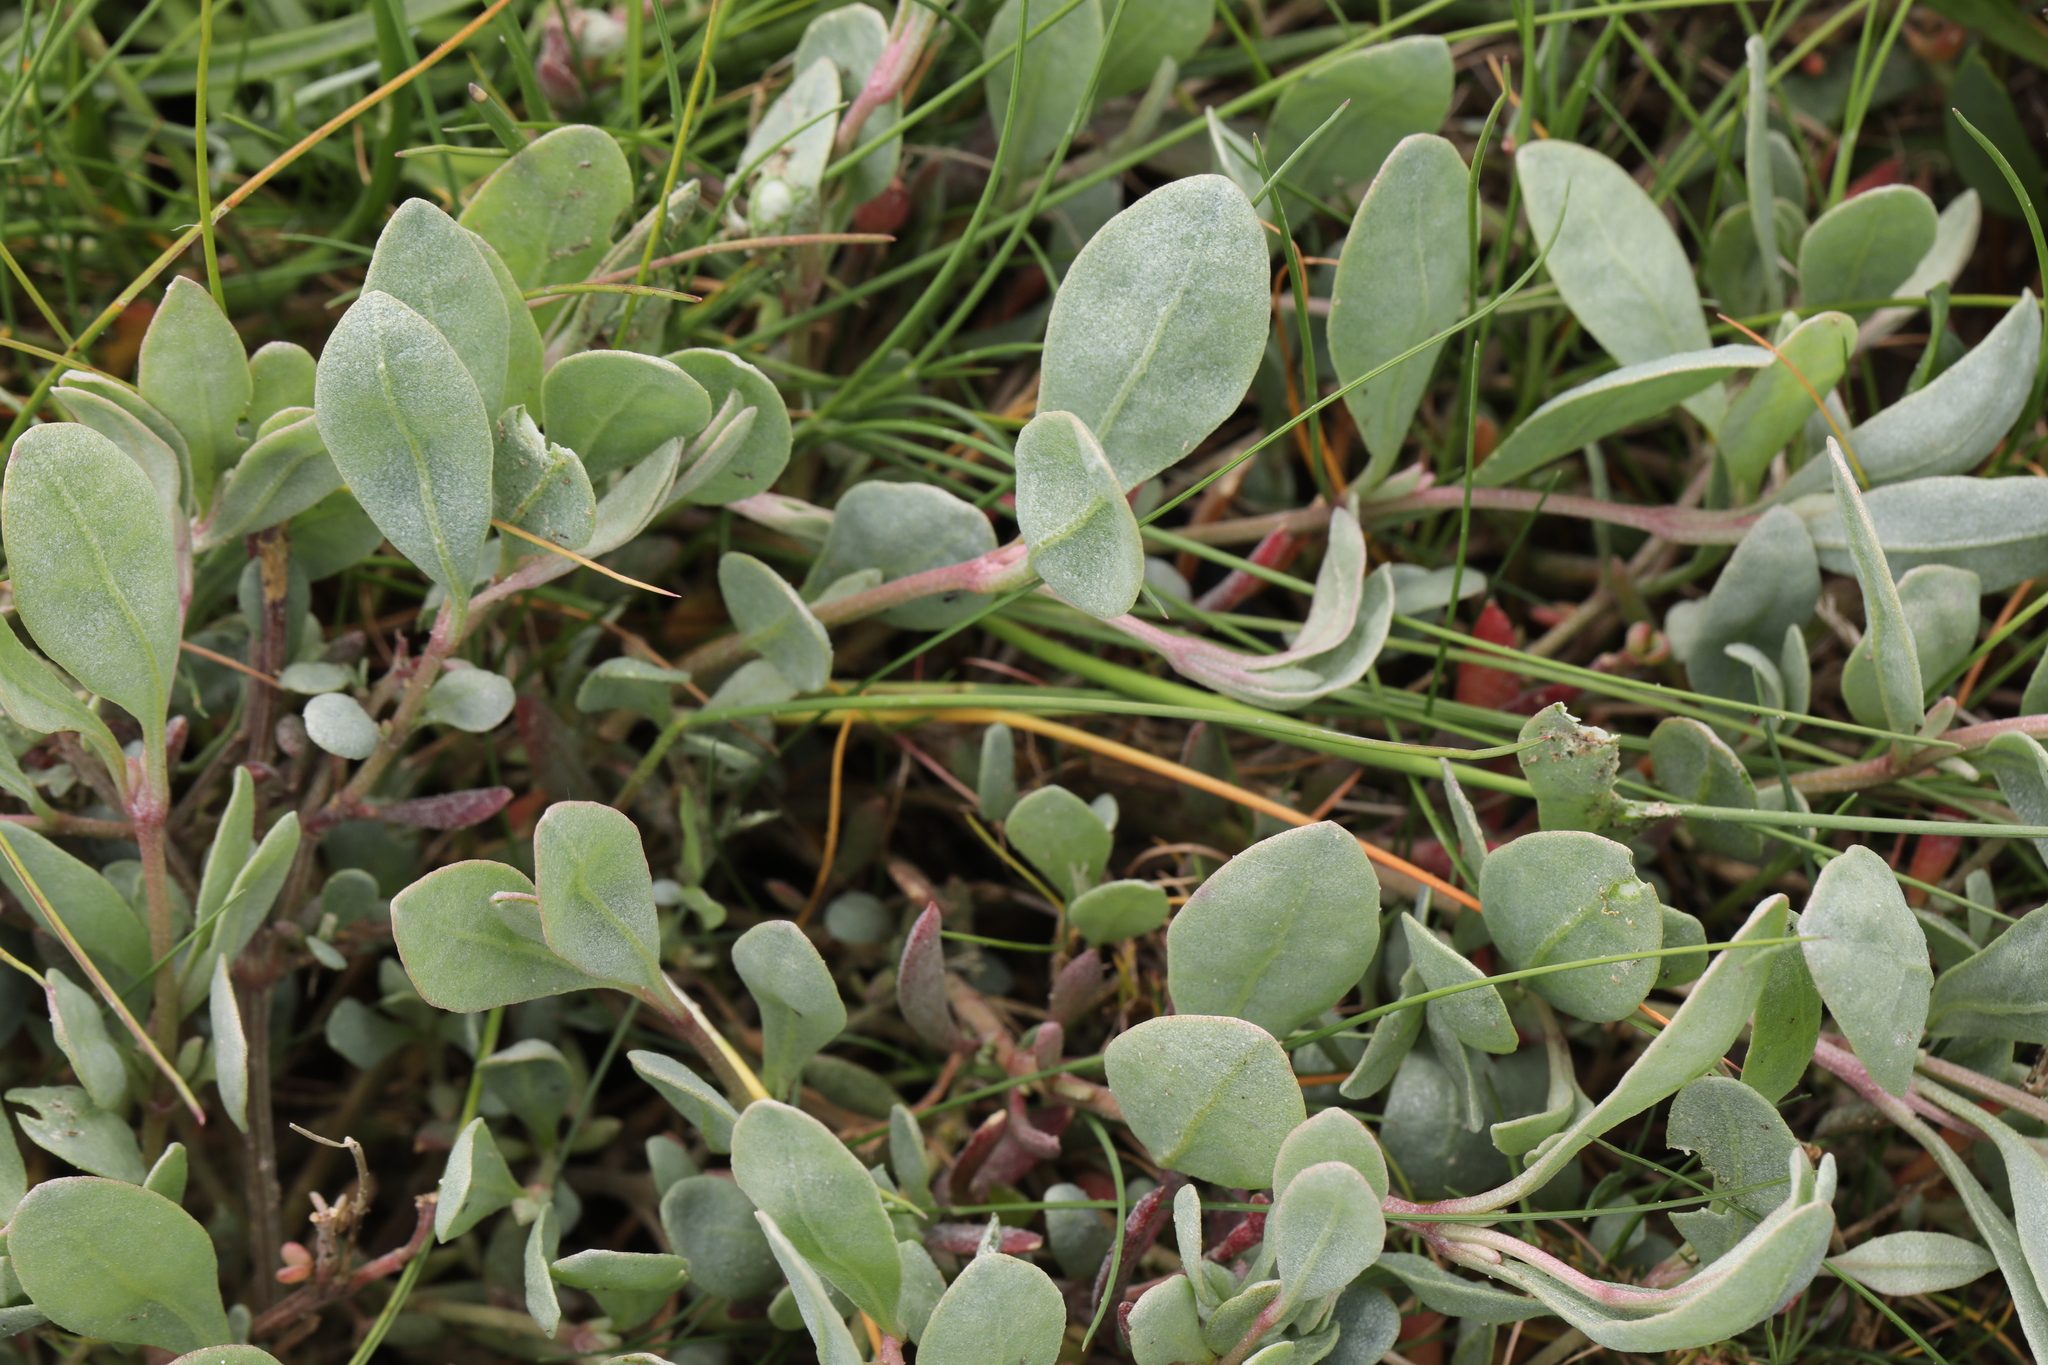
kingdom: Plantae
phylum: Tracheophyta
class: Magnoliopsida
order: Caryophyllales
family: Amaranthaceae
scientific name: Amaranthaceae
